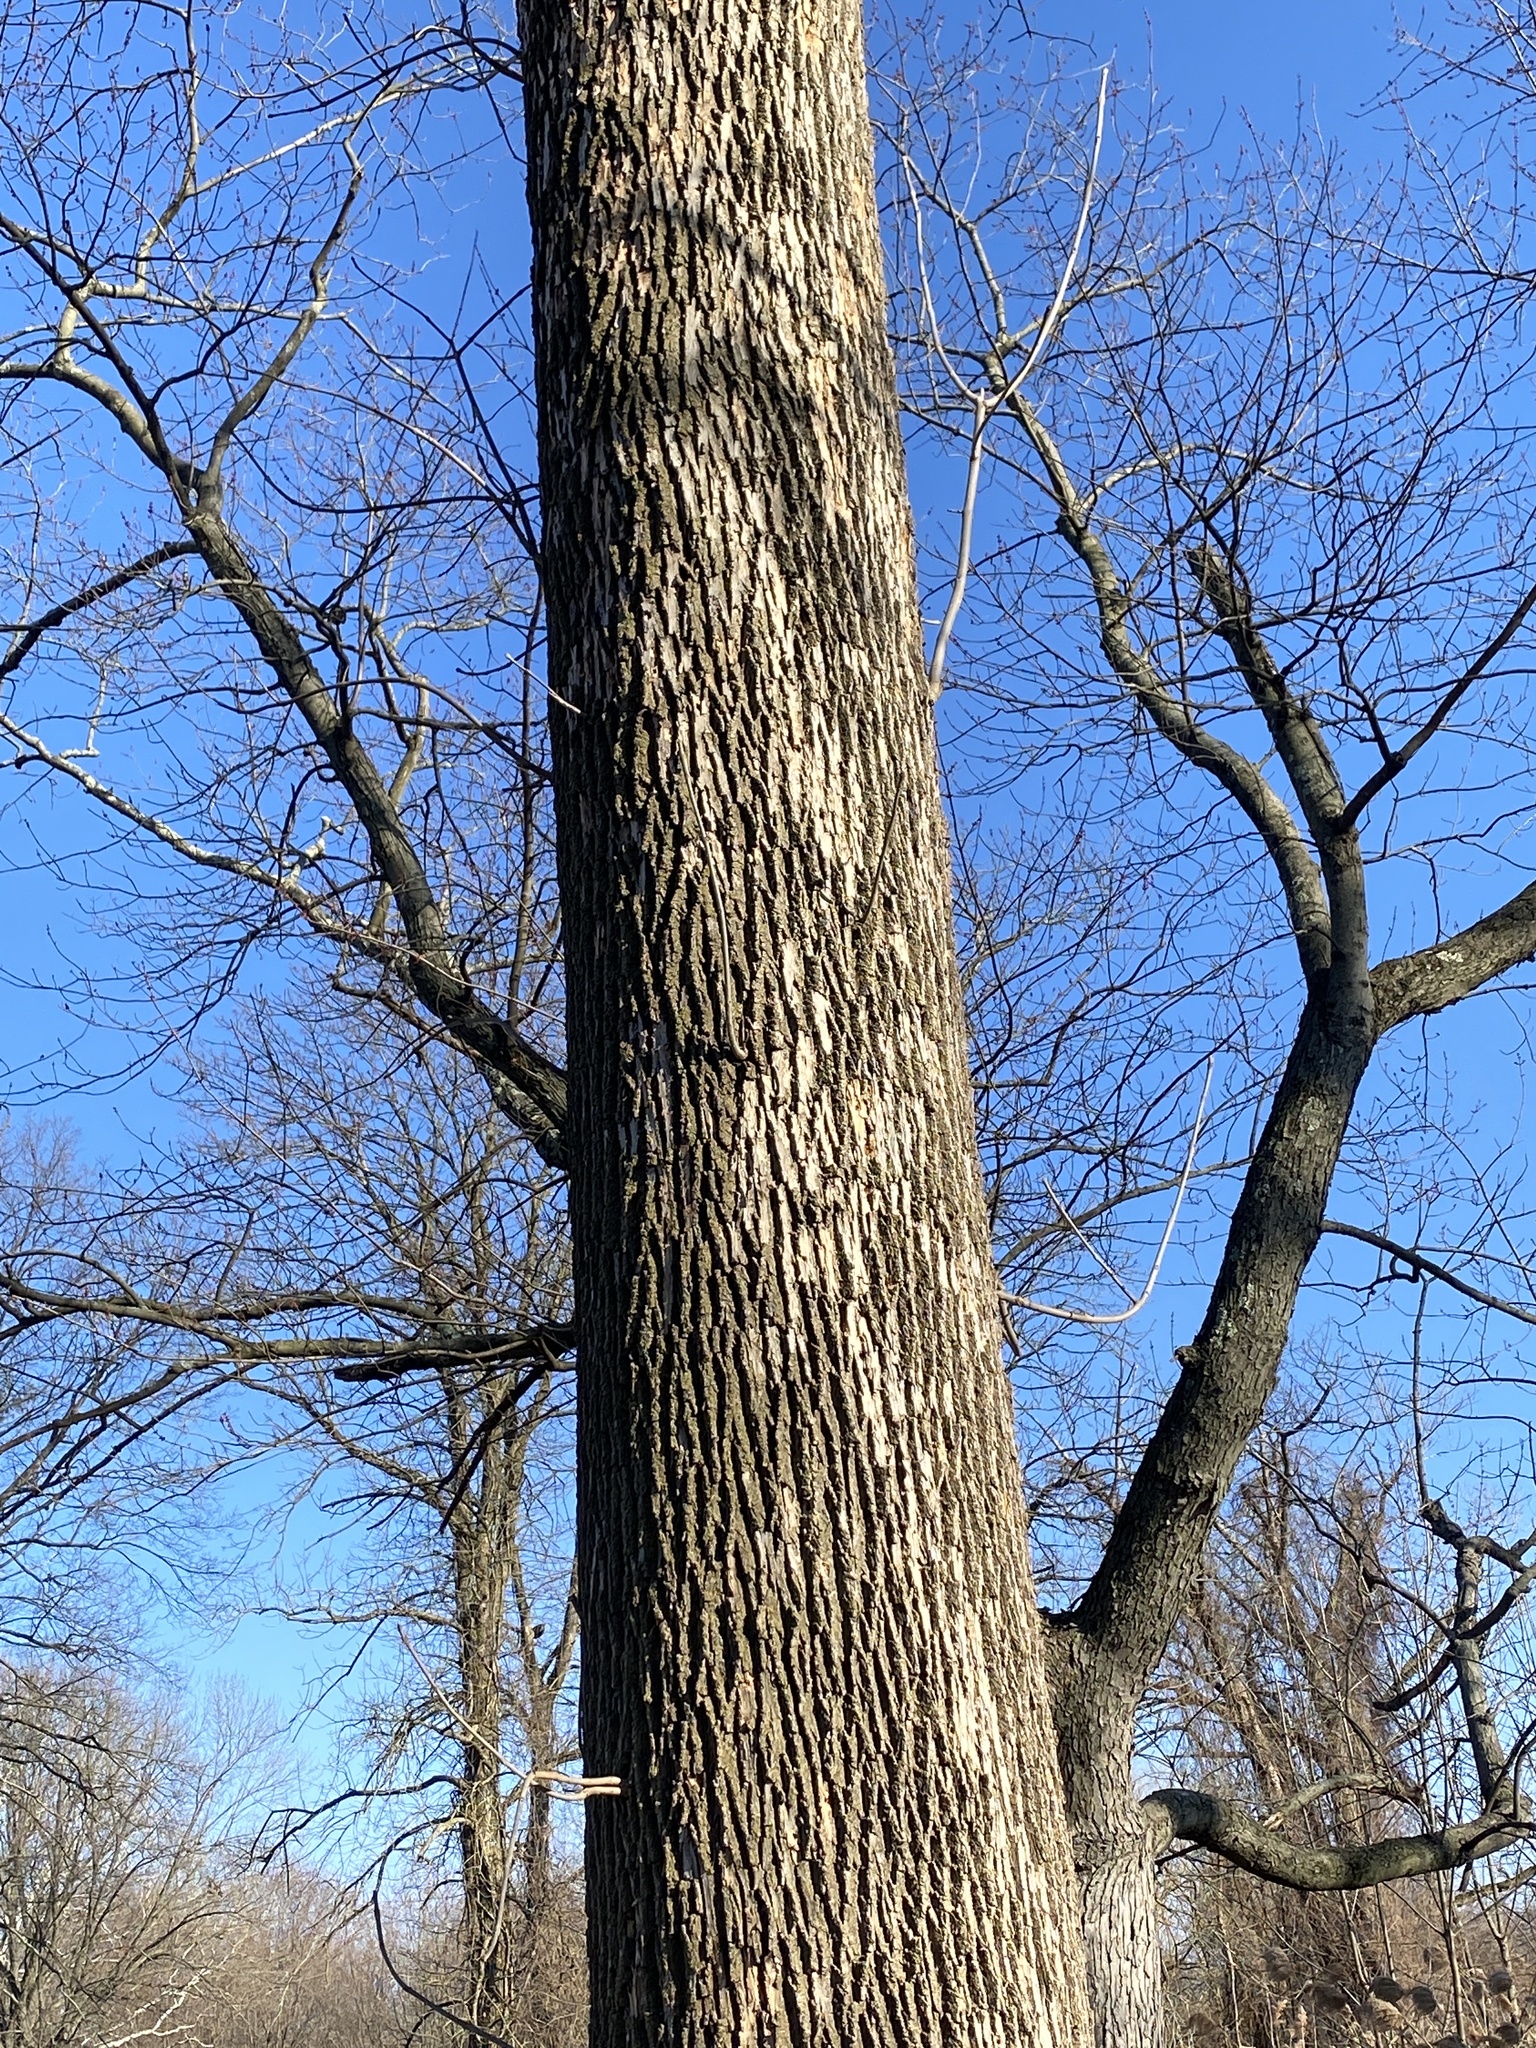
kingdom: Animalia
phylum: Arthropoda
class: Insecta
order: Coleoptera
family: Buprestidae
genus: Agrilus
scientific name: Agrilus planipennis
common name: Emerald ash borer
